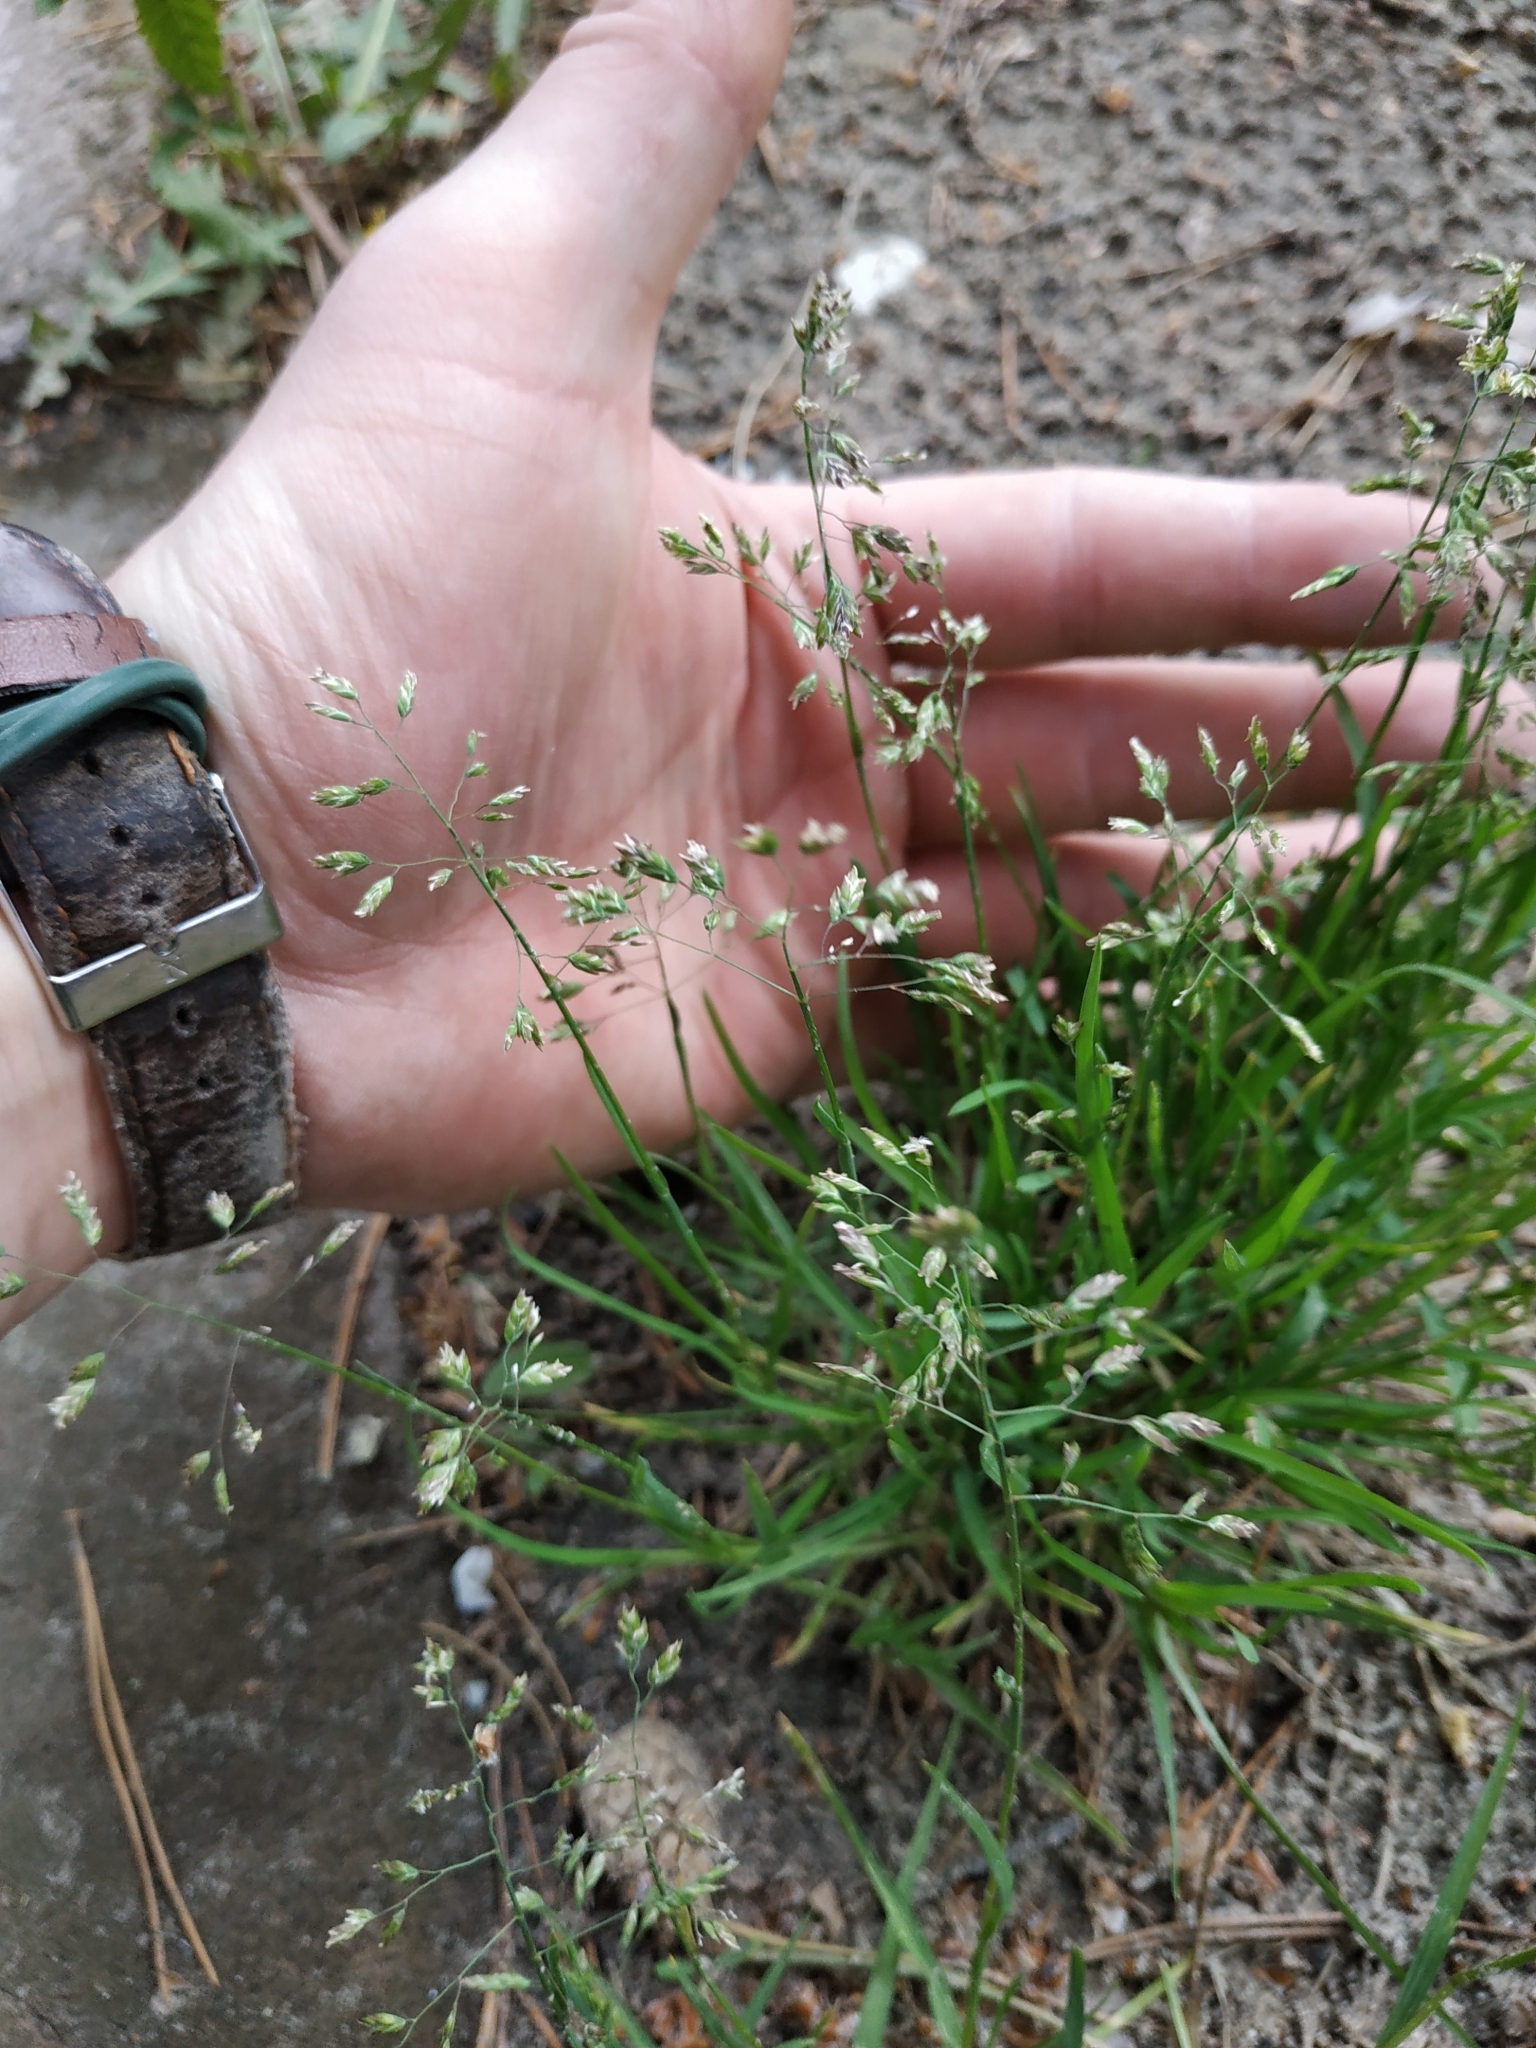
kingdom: Plantae
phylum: Tracheophyta
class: Liliopsida
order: Poales
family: Poaceae
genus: Poa
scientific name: Poa annua
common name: Annual bluegrass
